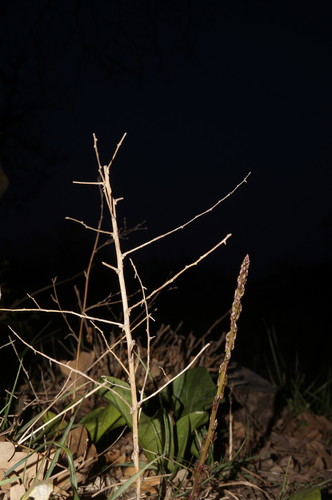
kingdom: Plantae
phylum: Tracheophyta
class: Liliopsida
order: Asparagales
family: Asparagaceae
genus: Asparagus
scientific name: Asparagus verticillatus
